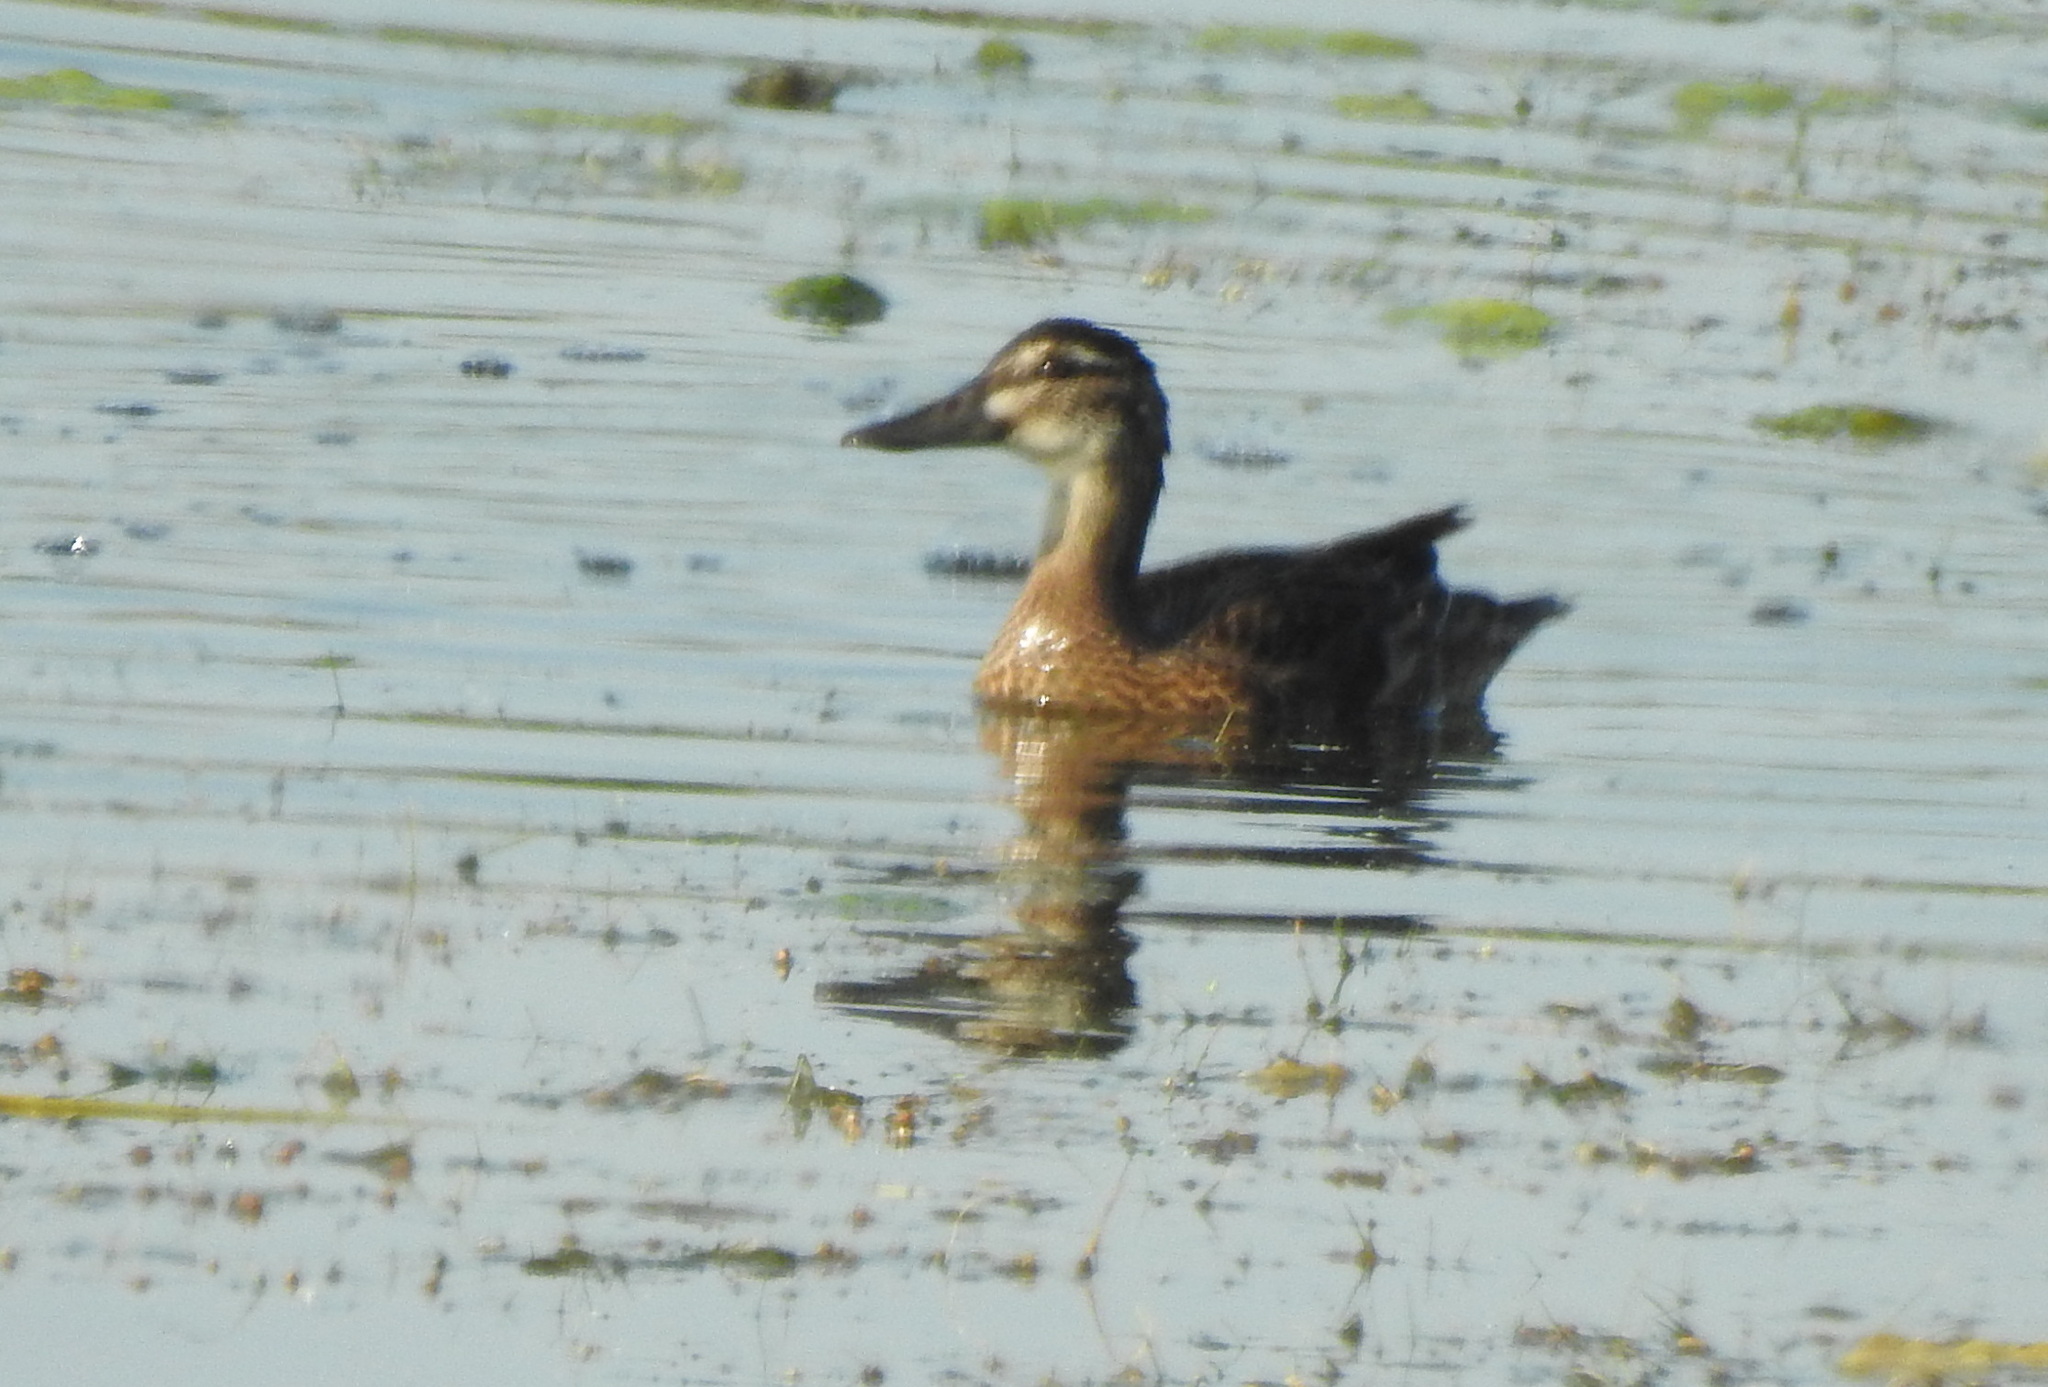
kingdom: Animalia
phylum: Chordata
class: Aves
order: Anseriformes
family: Anatidae
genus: Spatula
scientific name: Spatula querquedula
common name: Garganey
